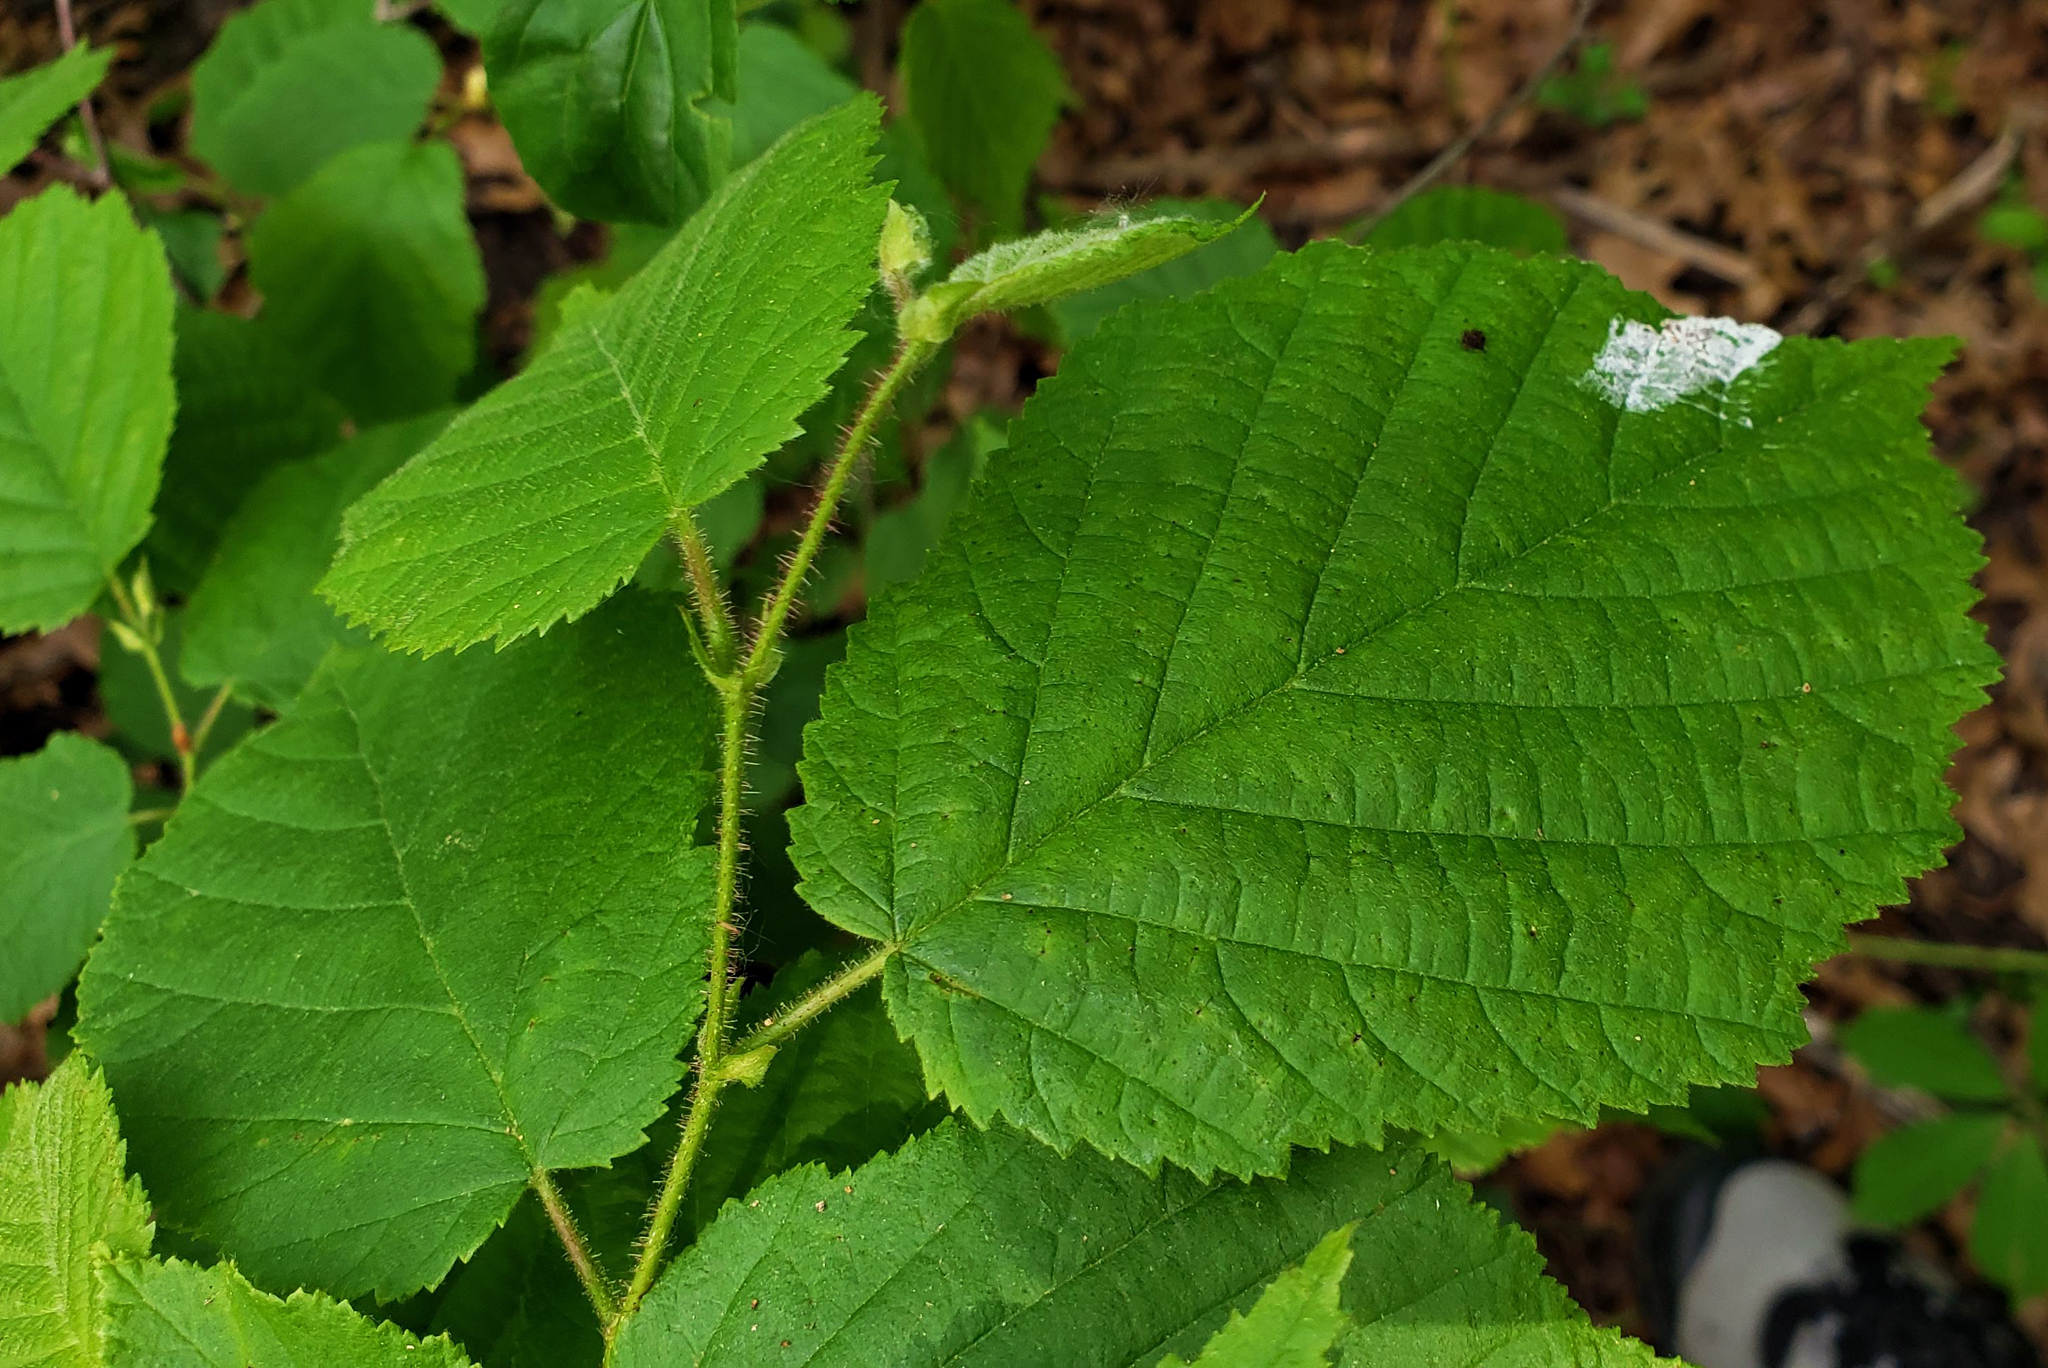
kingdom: Plantae
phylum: Tracheophyta
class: Magnoliopsida
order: Fagales
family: Betulaceae
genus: Corylus
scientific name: Corylus americana
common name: American hazel
